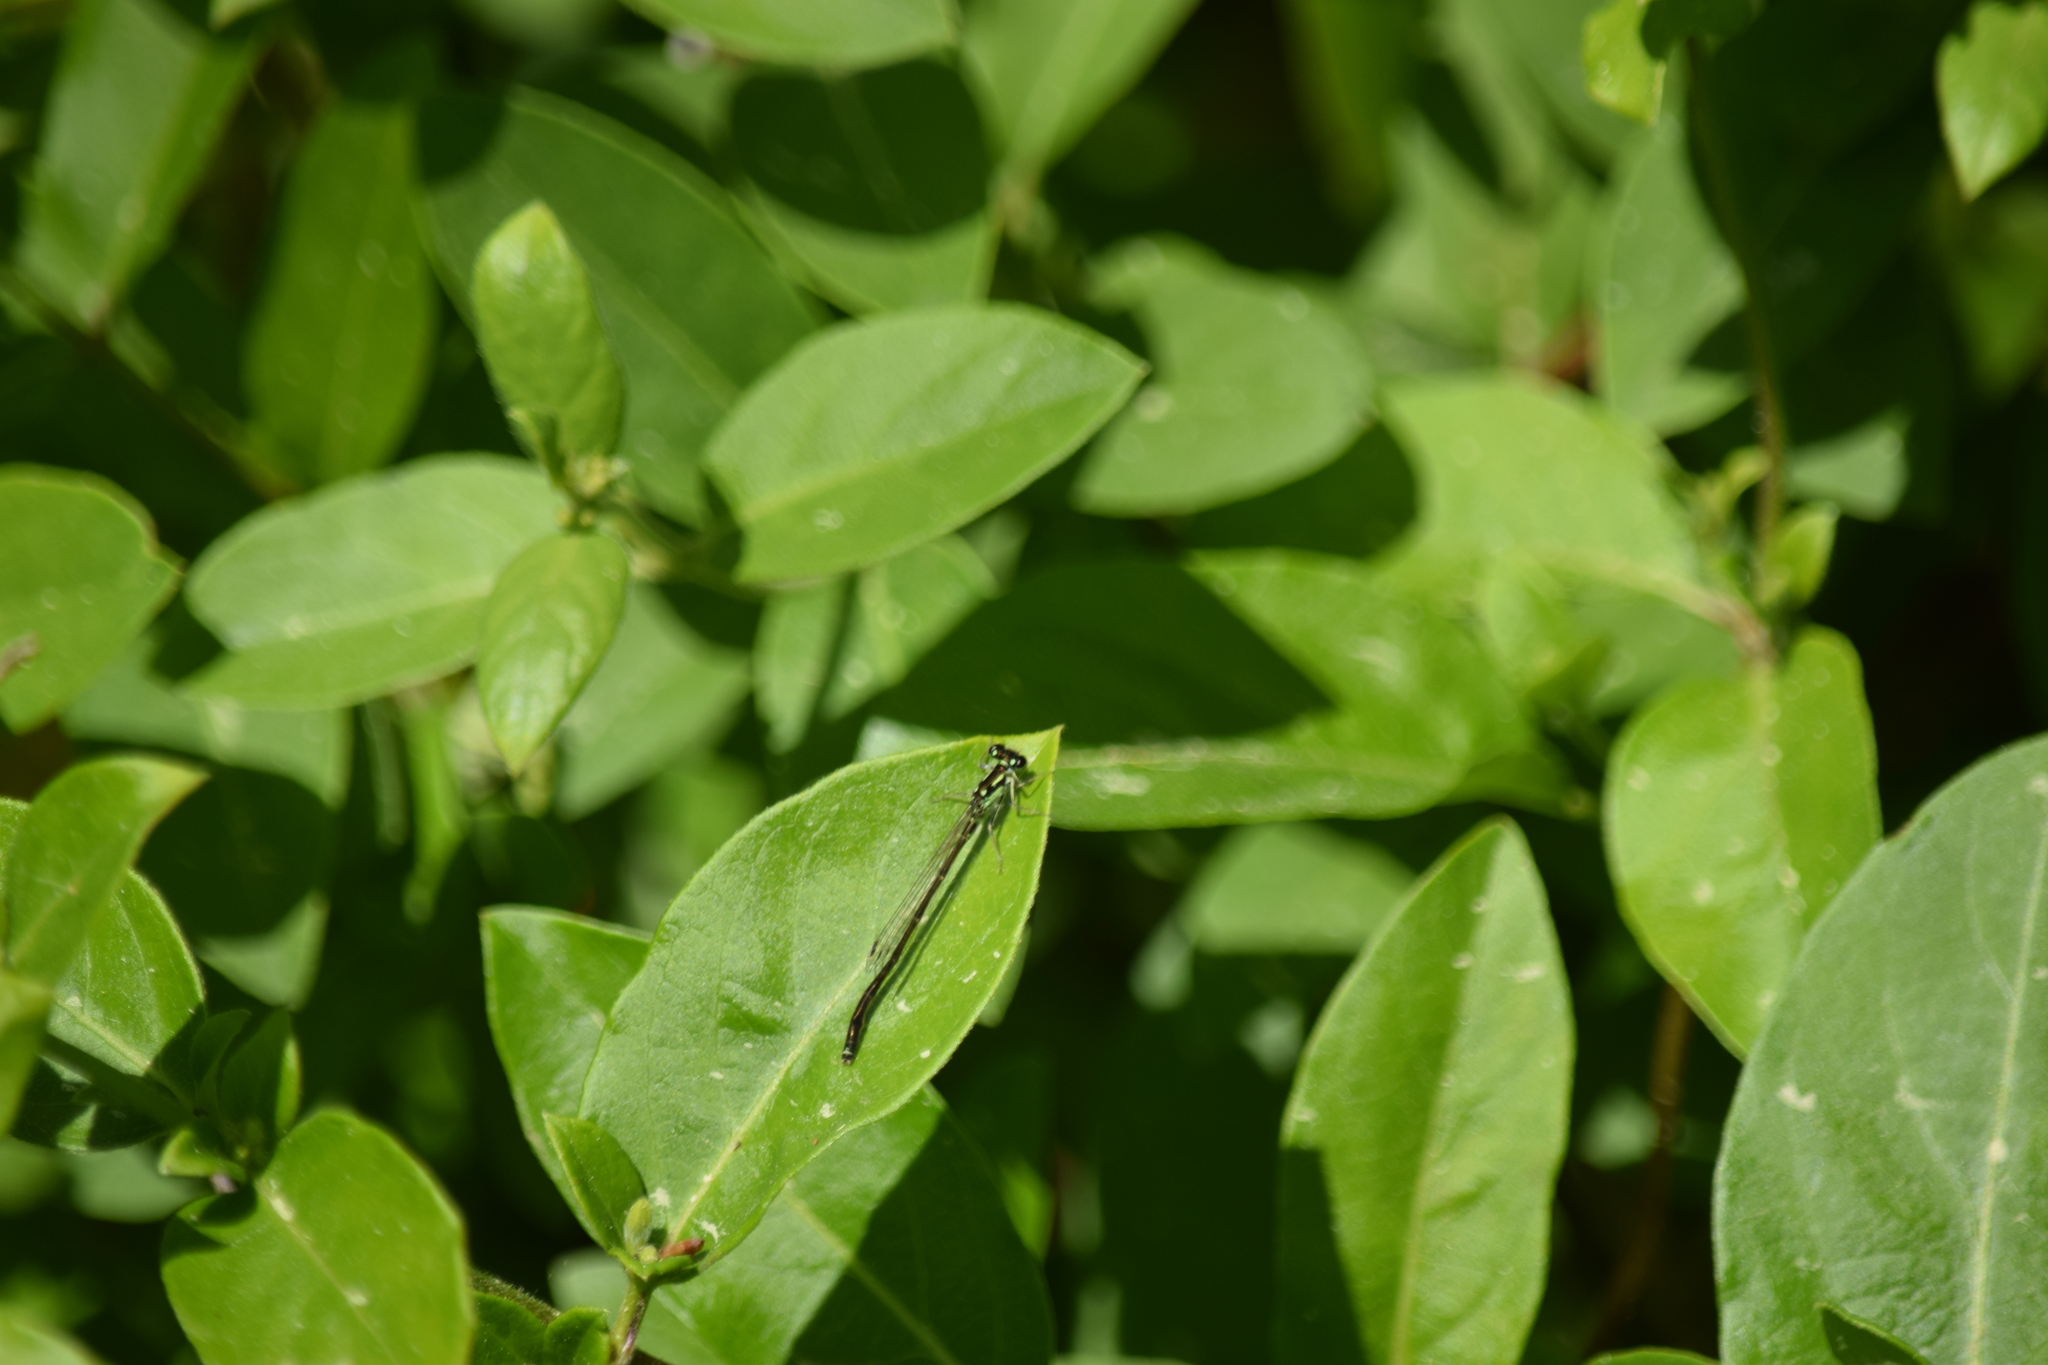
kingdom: Animalia
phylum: Arthropoda
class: Insecta
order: Odonata
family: Coenagrionidae
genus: Ischnura
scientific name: Ischnura posita
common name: Fragile forktail
